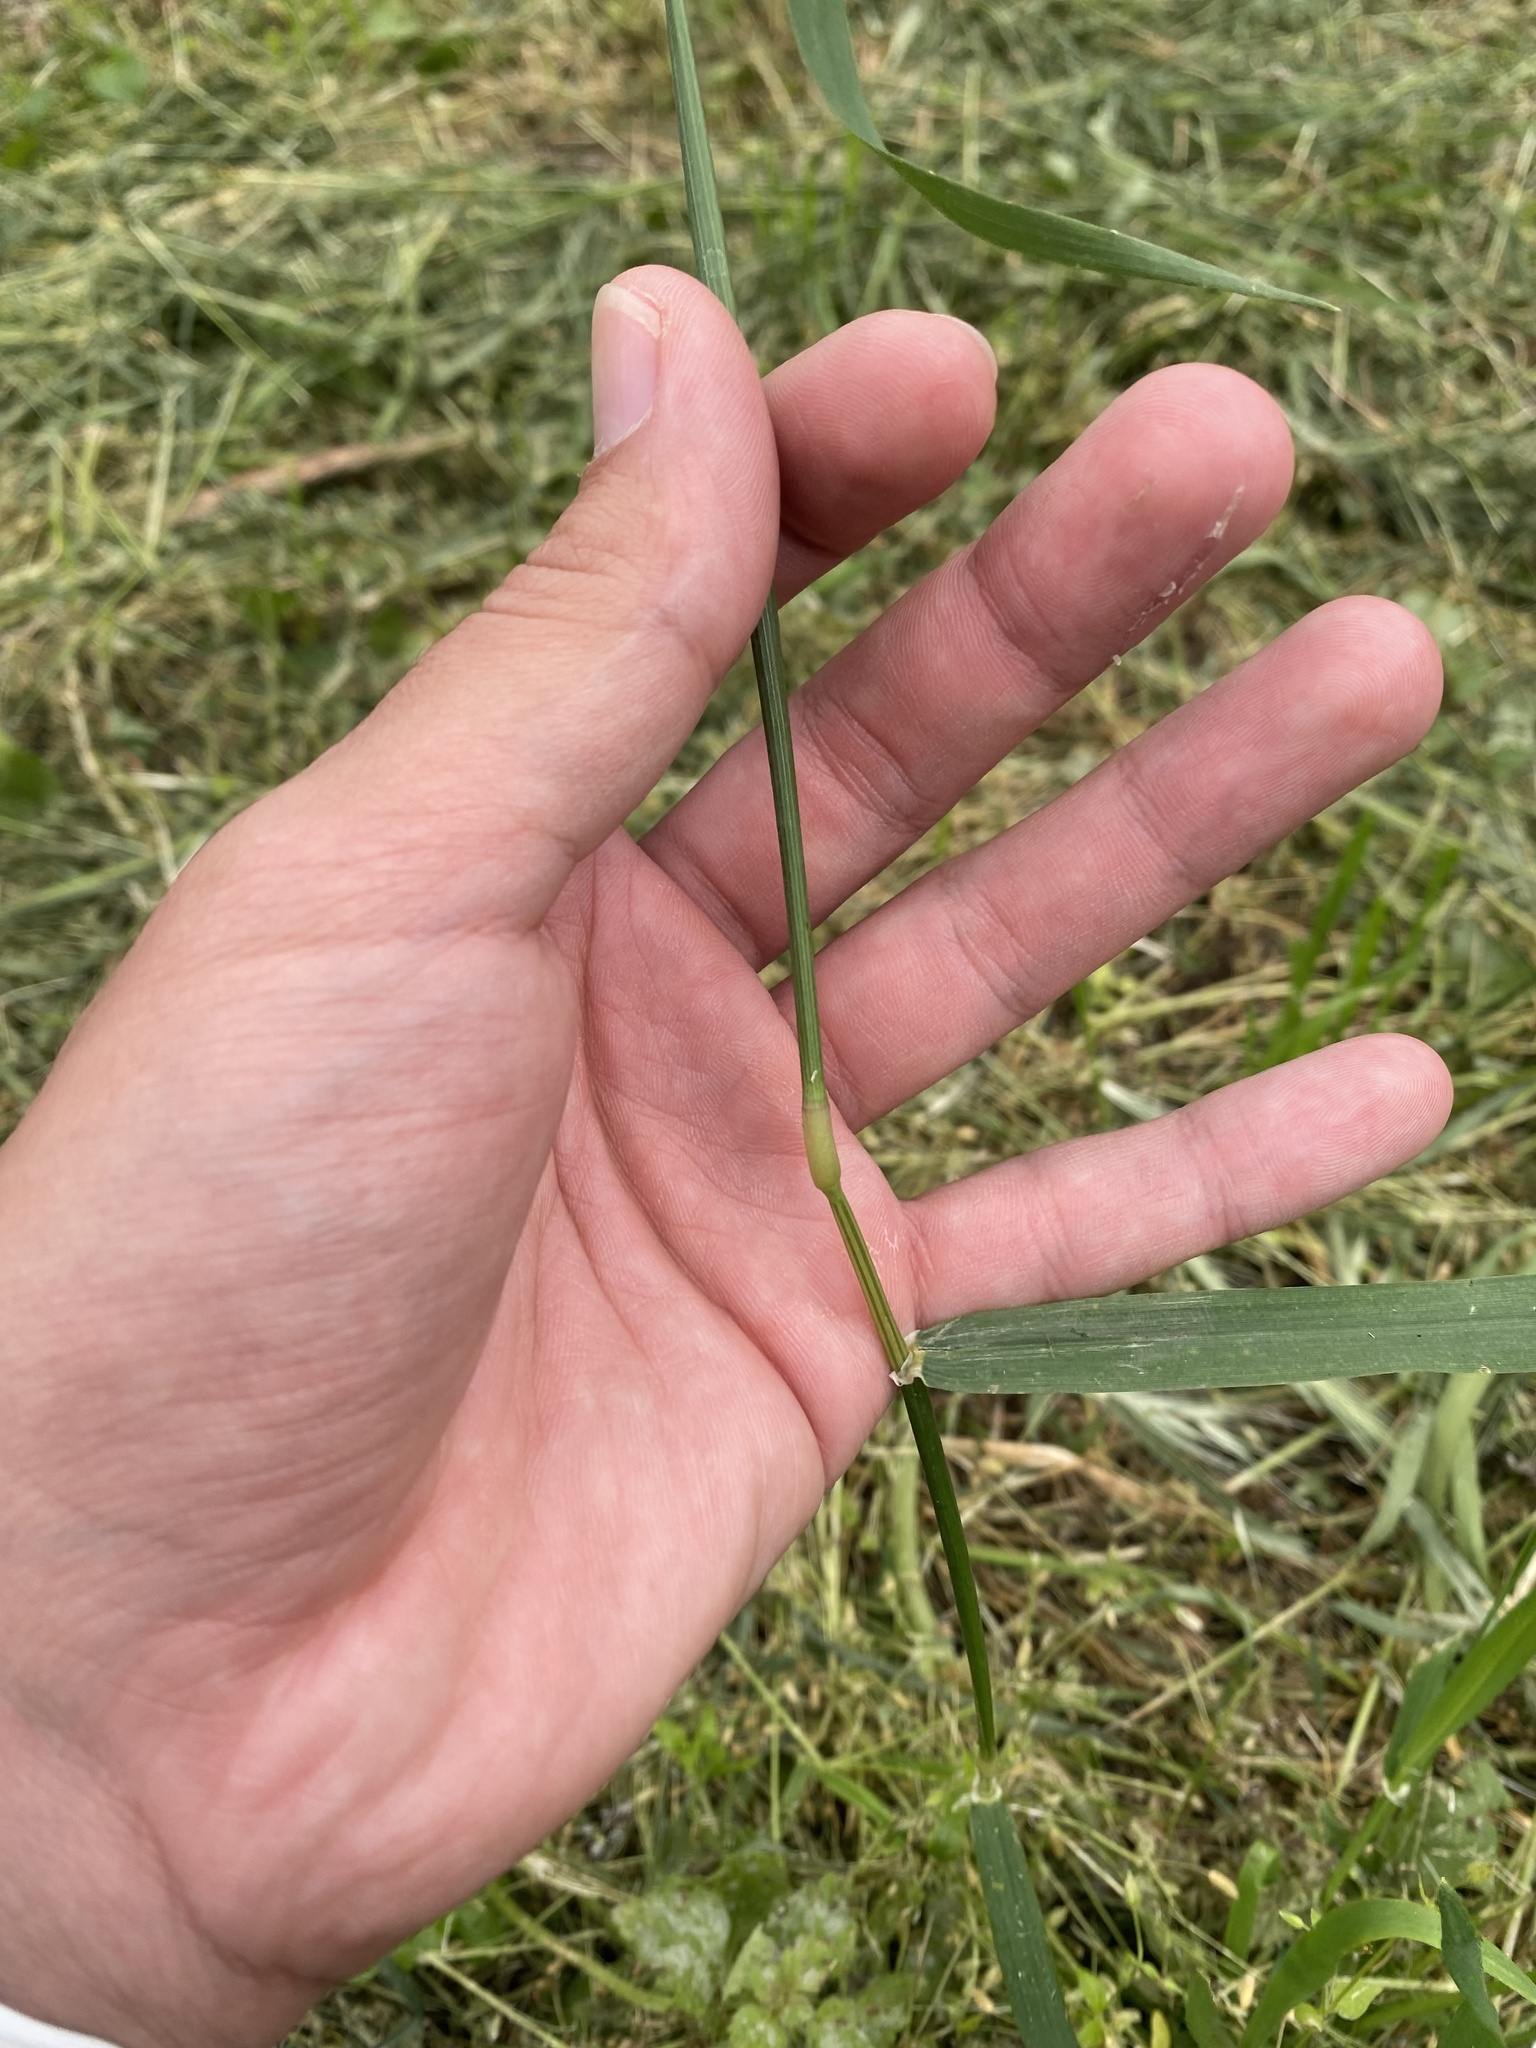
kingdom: Plantae
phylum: Tracheophyta
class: Liliopsida
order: Poales
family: Poaceae
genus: Hordeum
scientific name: Hordeum murinum
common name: Wall barley
